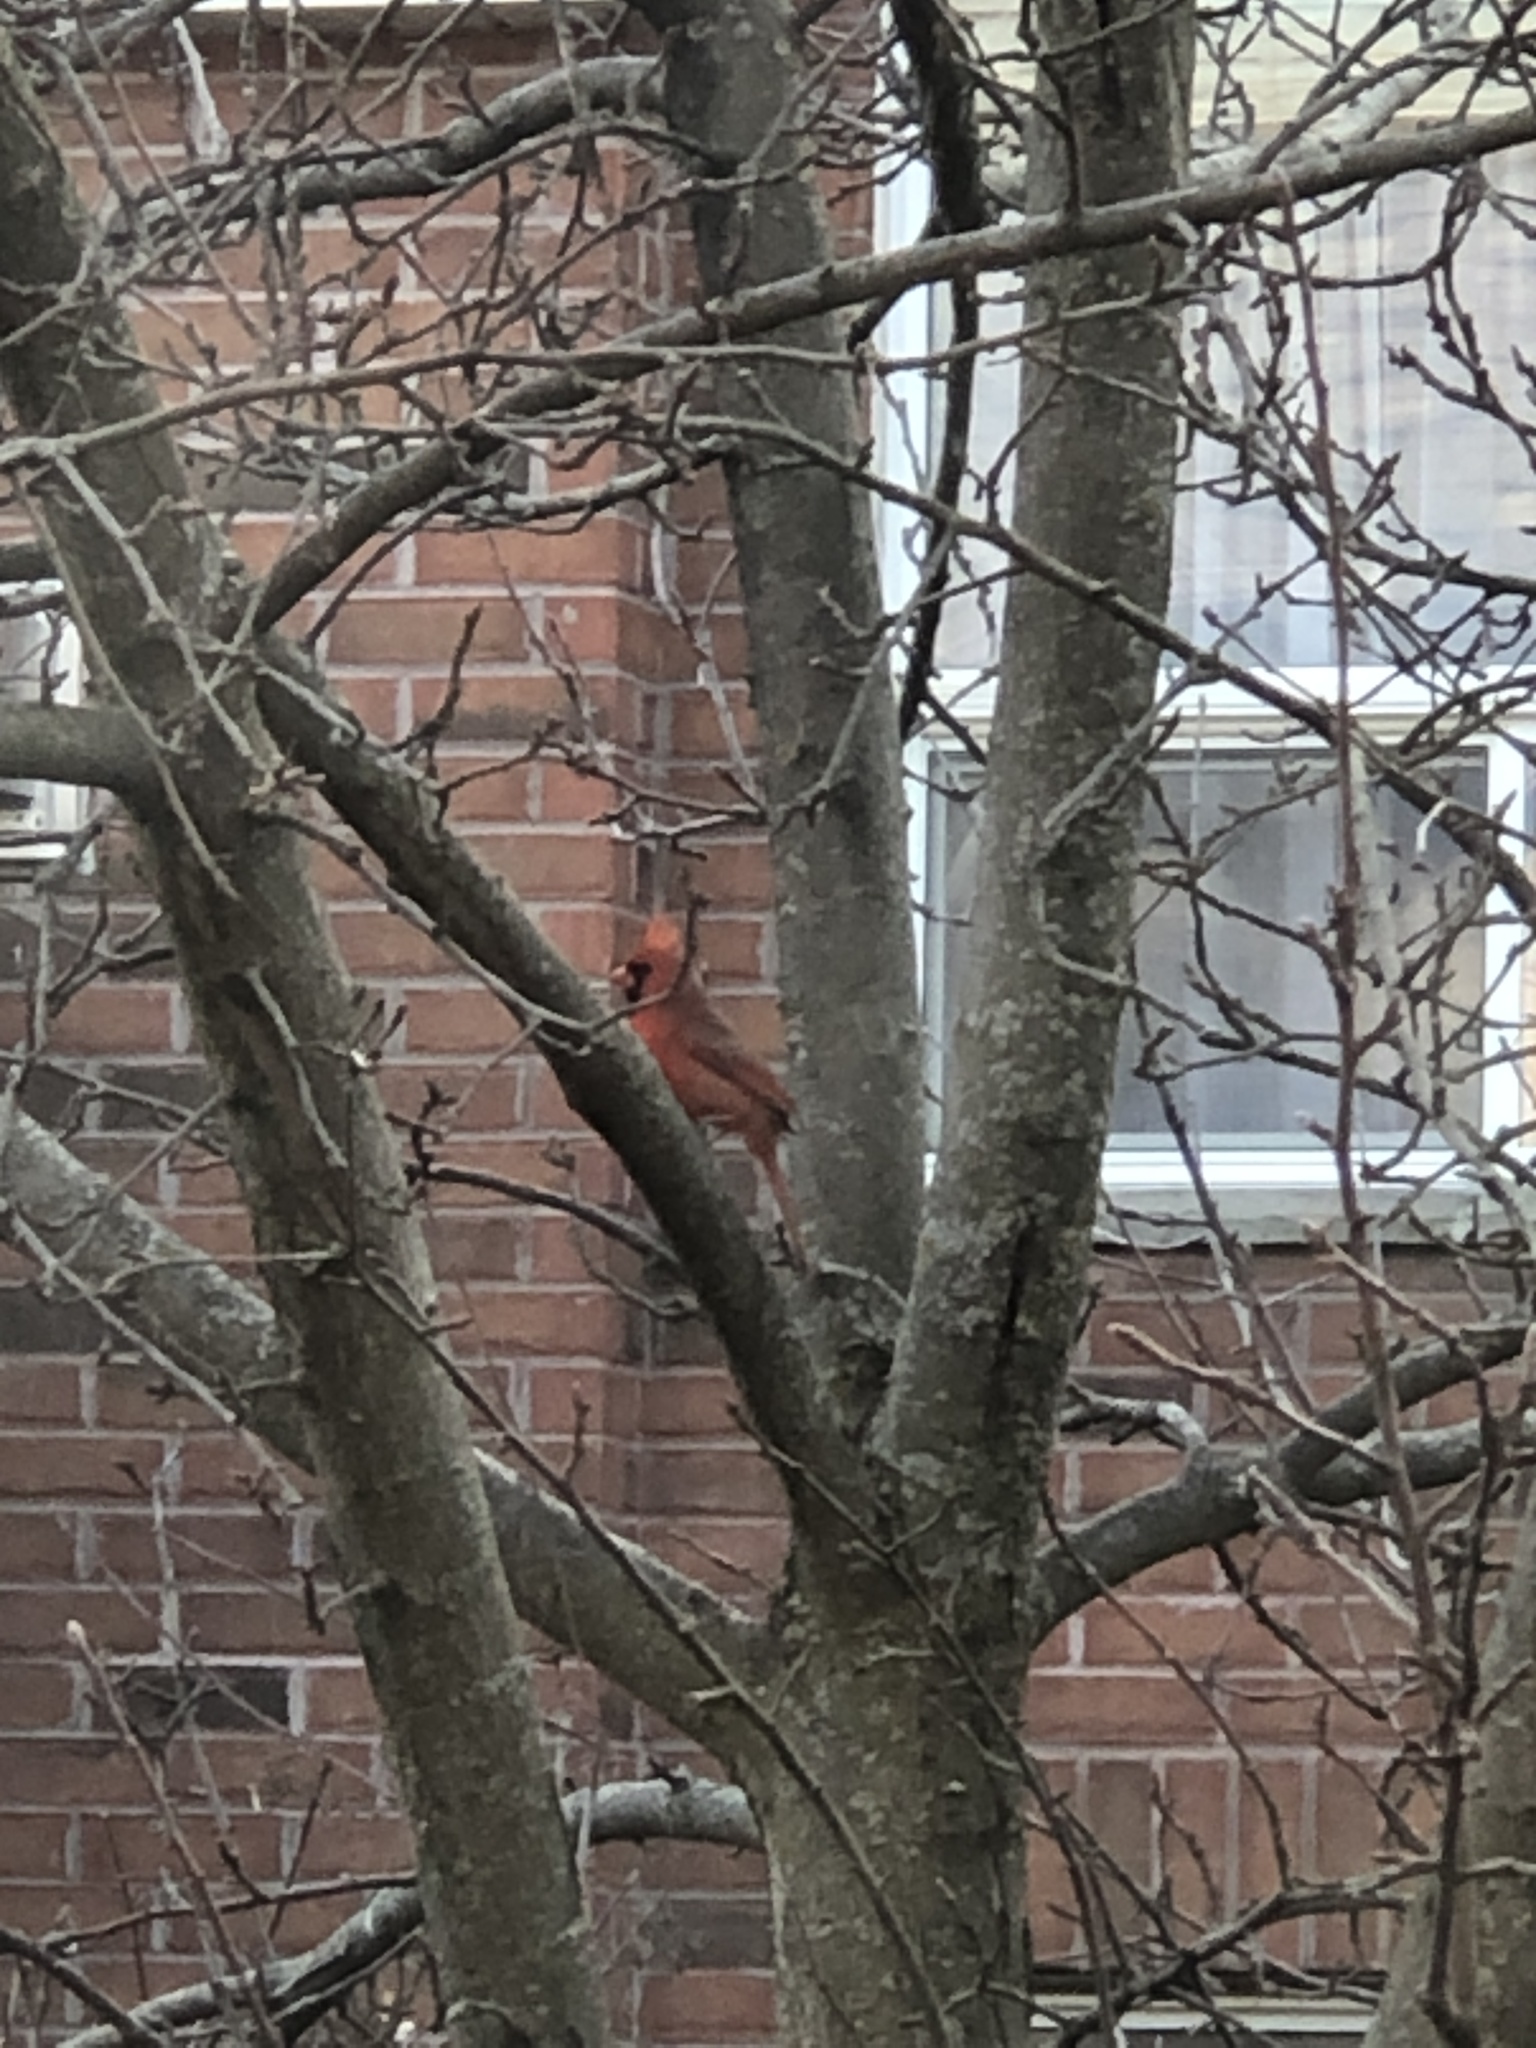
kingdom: Animalia
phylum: Chordata
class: Aves
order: Passeriformes
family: Cardinalidae
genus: Cardinalis
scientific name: Cardinalis cardinalis
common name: Northern cardinal
